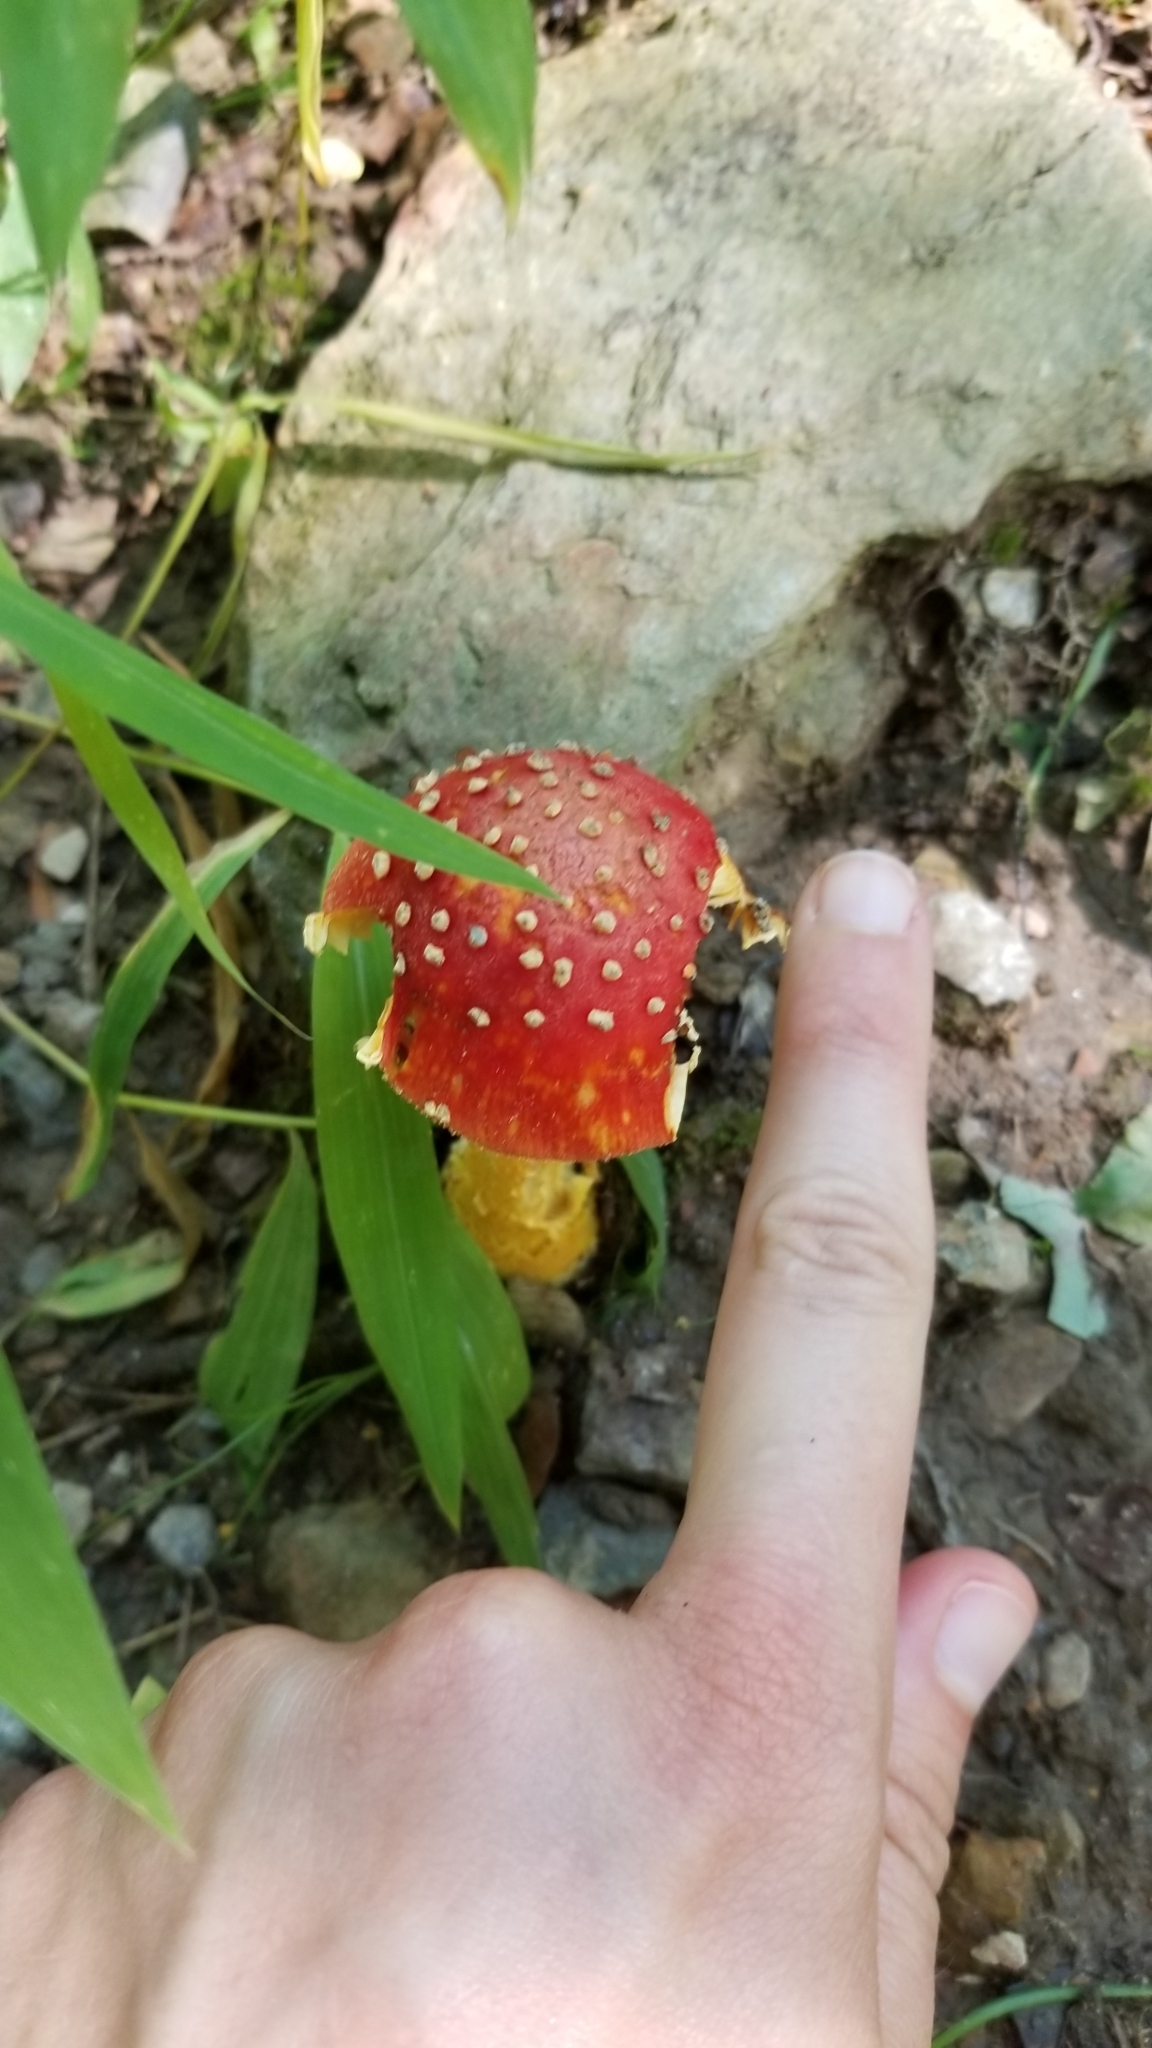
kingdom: Fungi
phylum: Basidiomycota
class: Agaricomycetes
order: Agaricales
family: Amanitaceae
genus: Amanita
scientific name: Amanita parcivolvata
